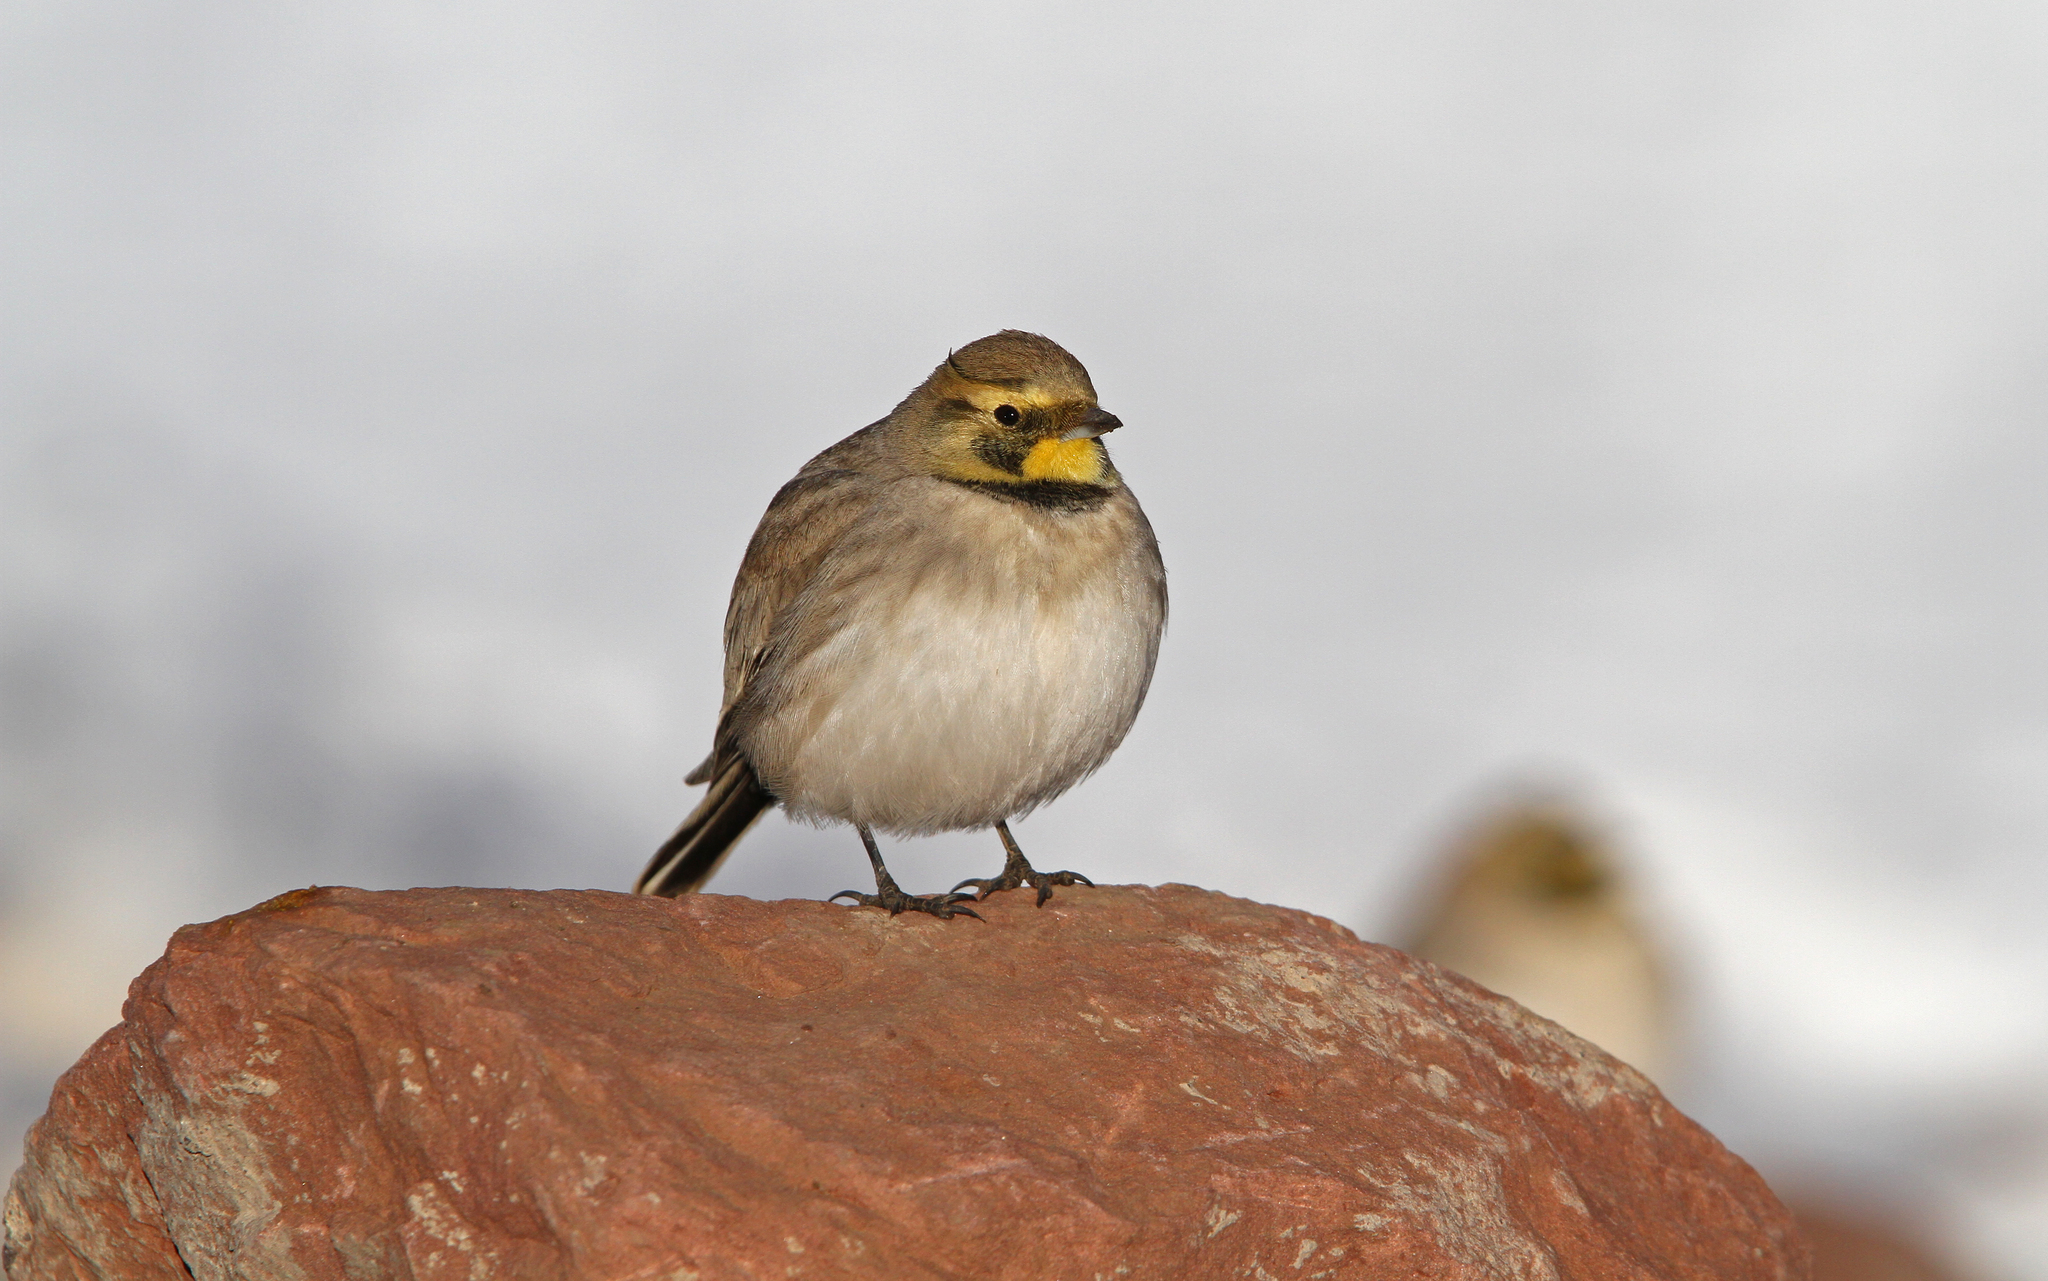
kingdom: Animalia
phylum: Chordata
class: Aves
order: Passeriformes
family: Alaudidae
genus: Eremophila
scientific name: Eremophila alpestris
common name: Horned lark
